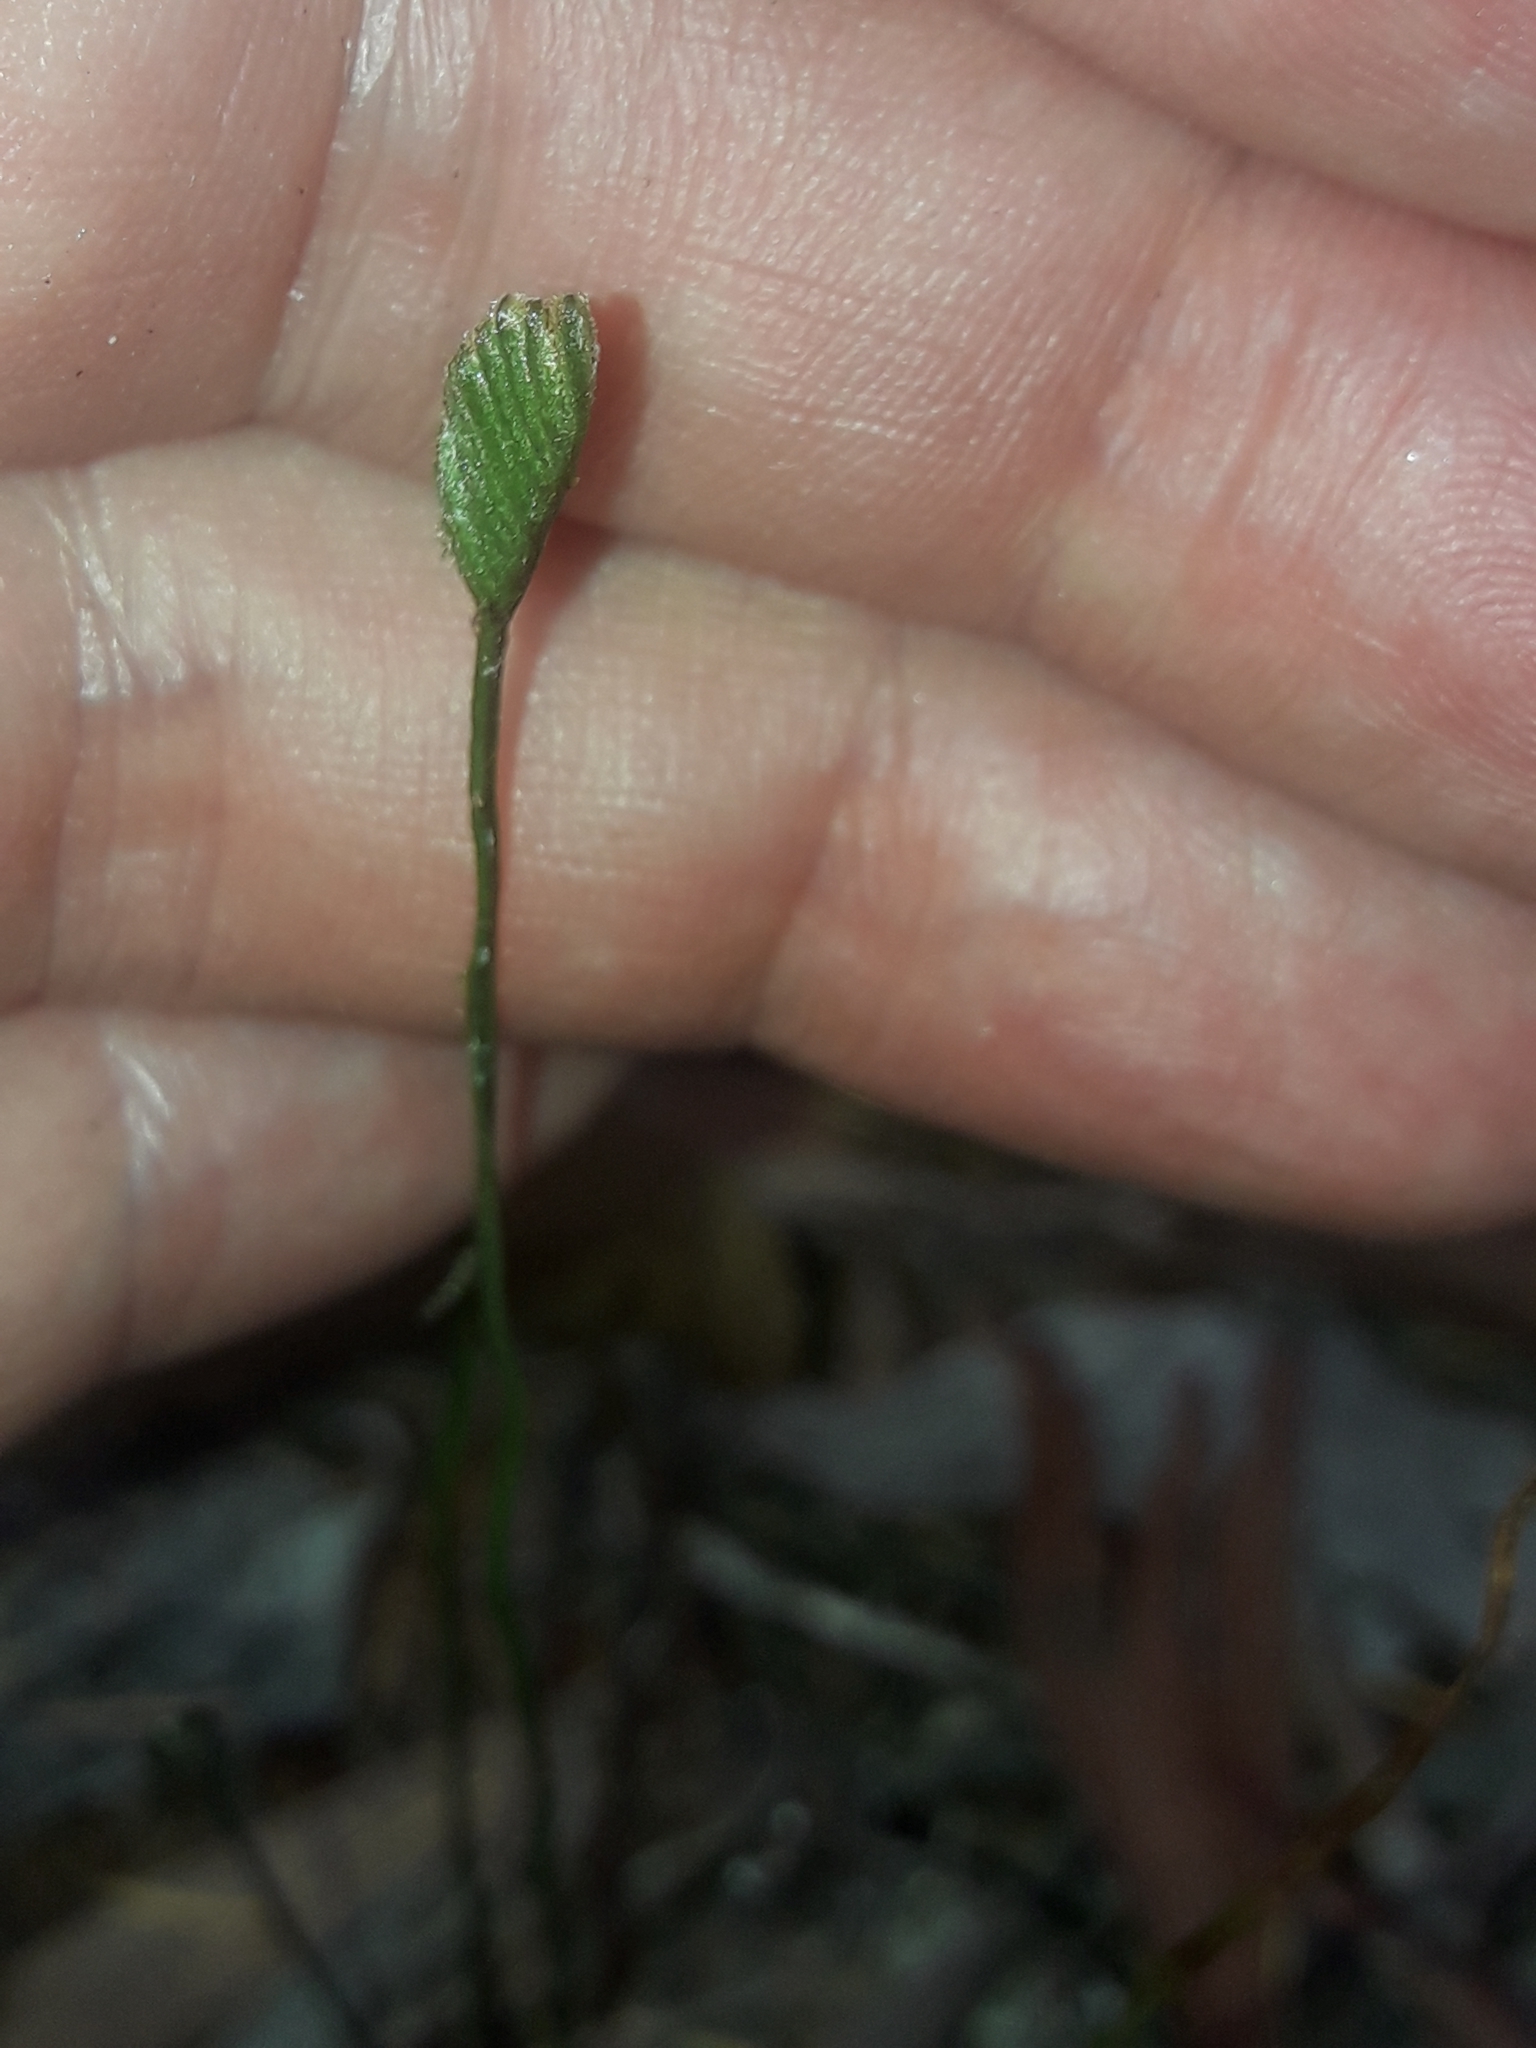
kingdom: Plantae
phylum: Tracheophyta
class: Polypodiopsida
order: Schizaeales
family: Schizaeaceae
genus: Schizaea
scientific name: Schizaea bifida
